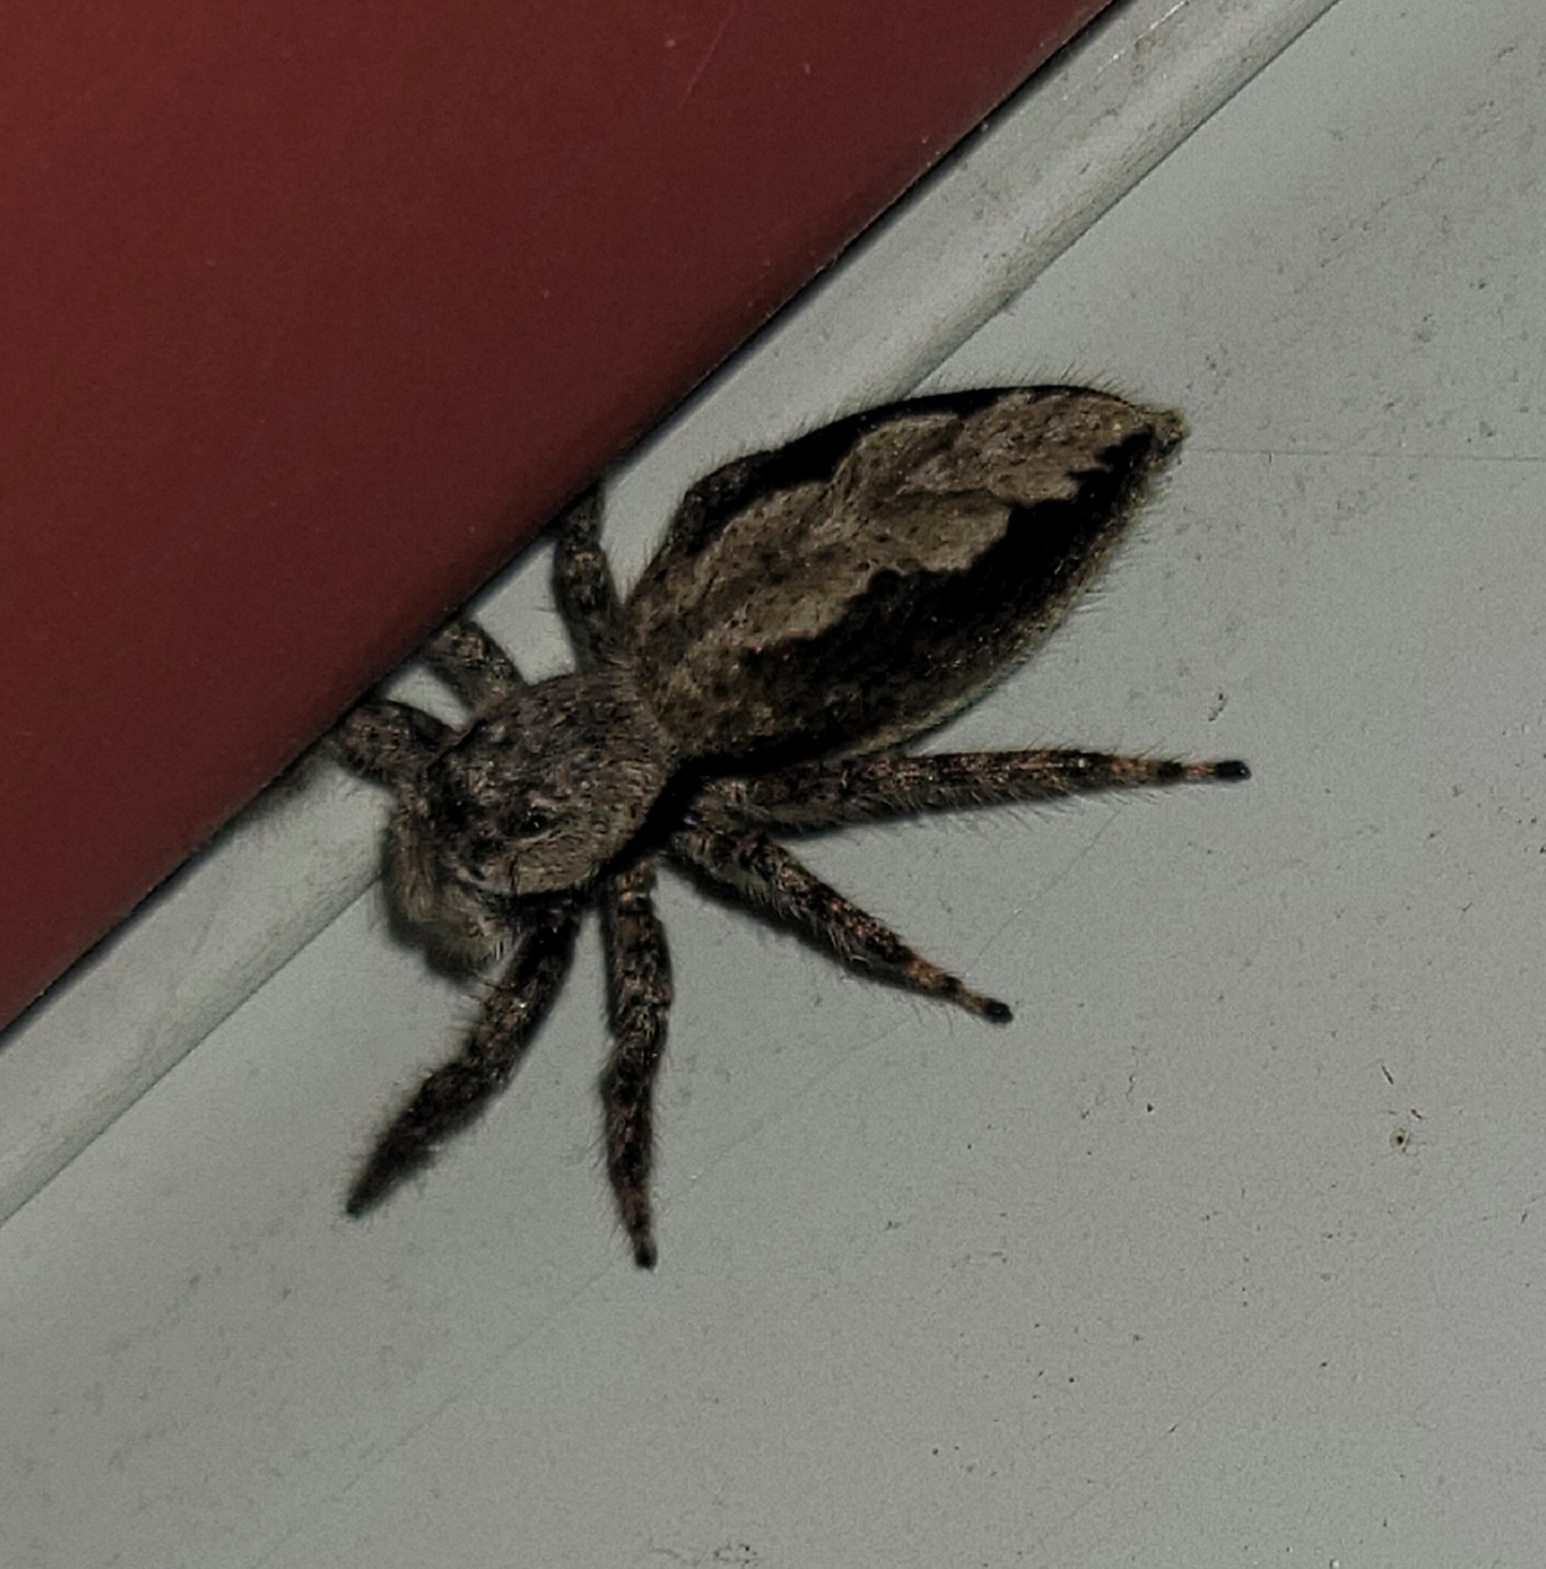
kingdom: Animalia
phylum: Arthropoda
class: Arachnida
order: Araneae
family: Salticidae
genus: Platycryptus
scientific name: Platycryptus undatus
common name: Tan jumping spider
